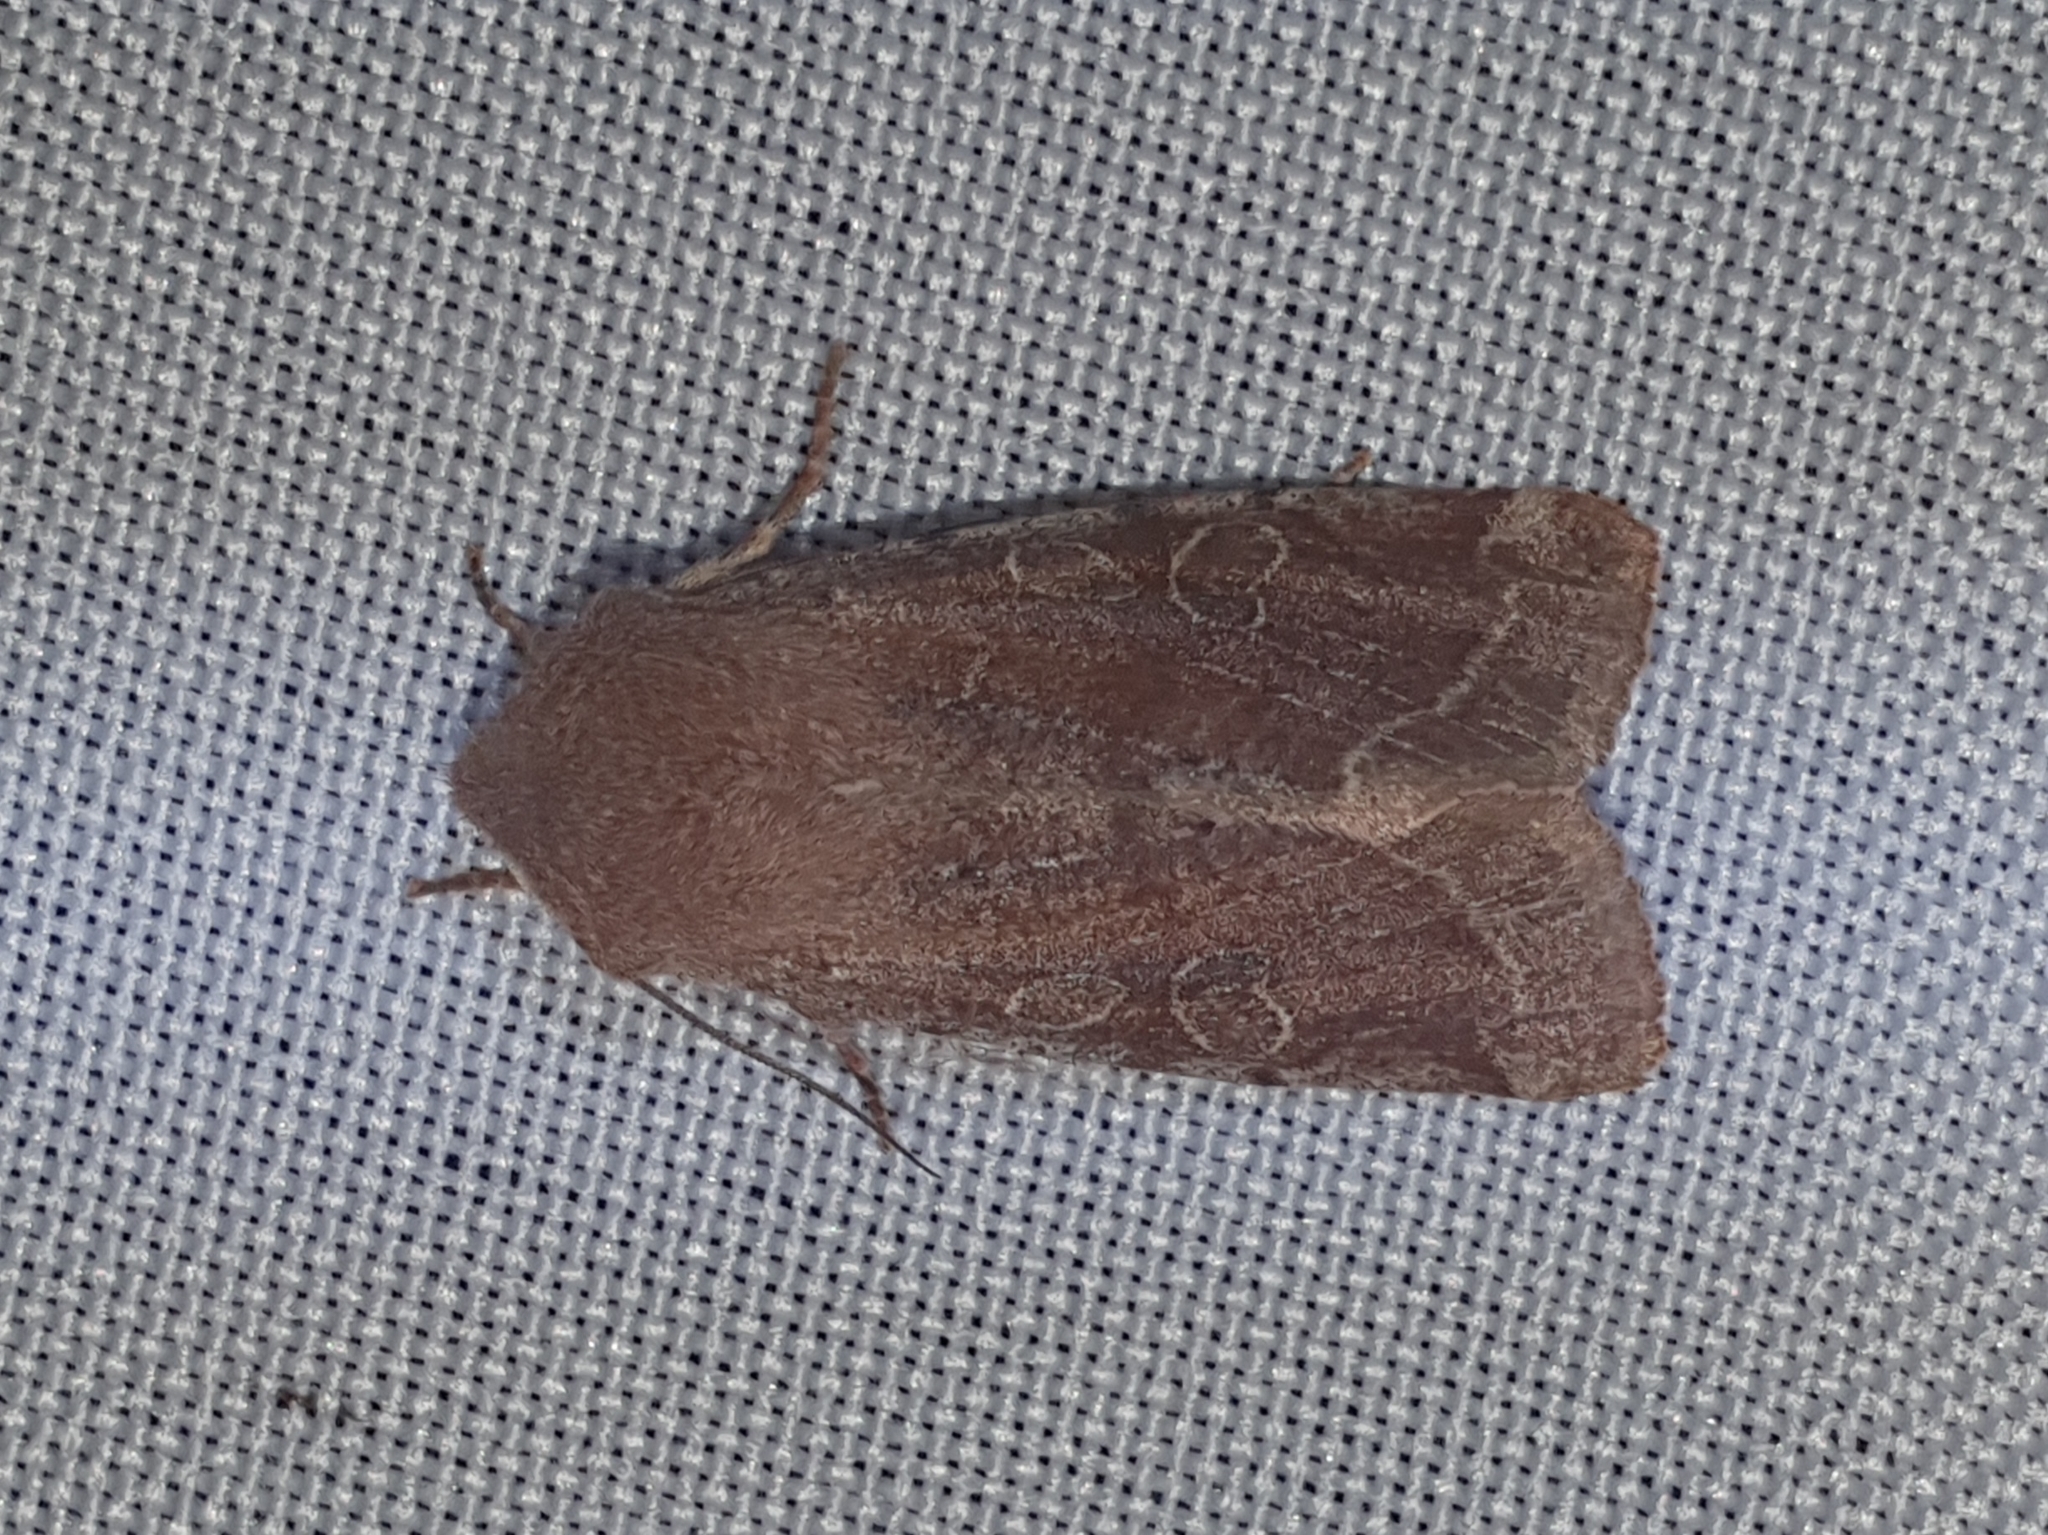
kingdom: Animalia
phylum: Arthropoda
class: Insecta
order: Lepidoptera
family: Noctuidae
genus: Orthosia
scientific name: Orthosia incerta
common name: Clouded drab
